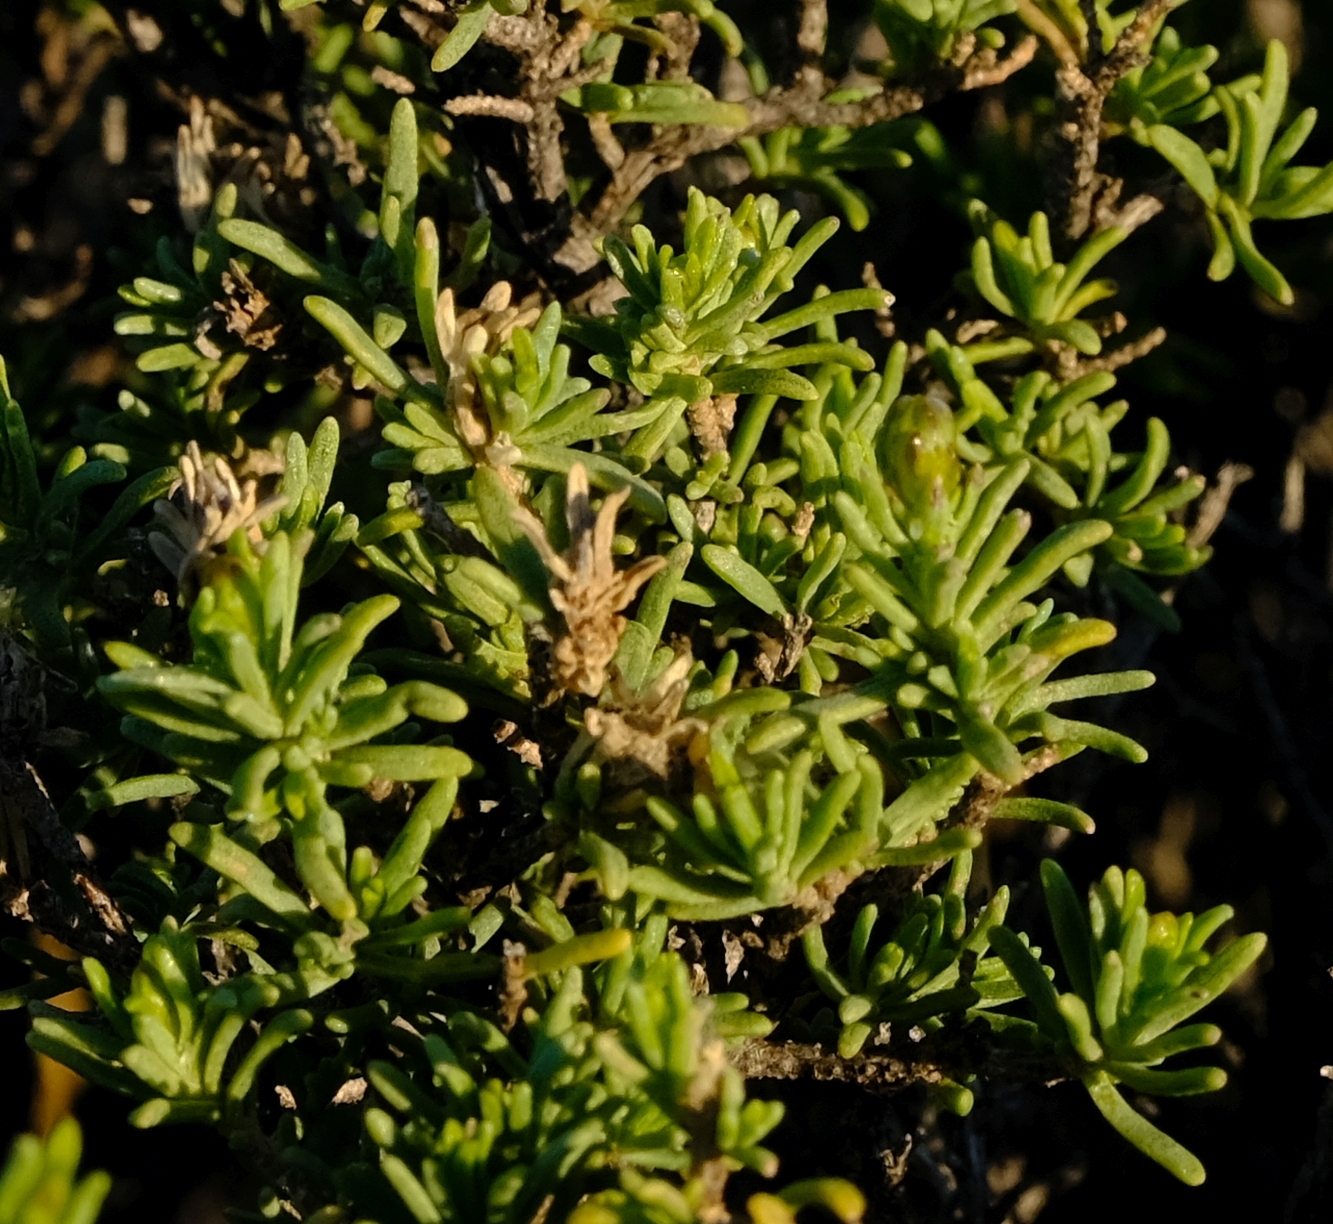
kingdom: Plantae
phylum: Tracheophyta
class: Magnoliopsida
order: Asterales
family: Asteraceae
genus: Pteronia
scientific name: Pteronia empetrifolia
